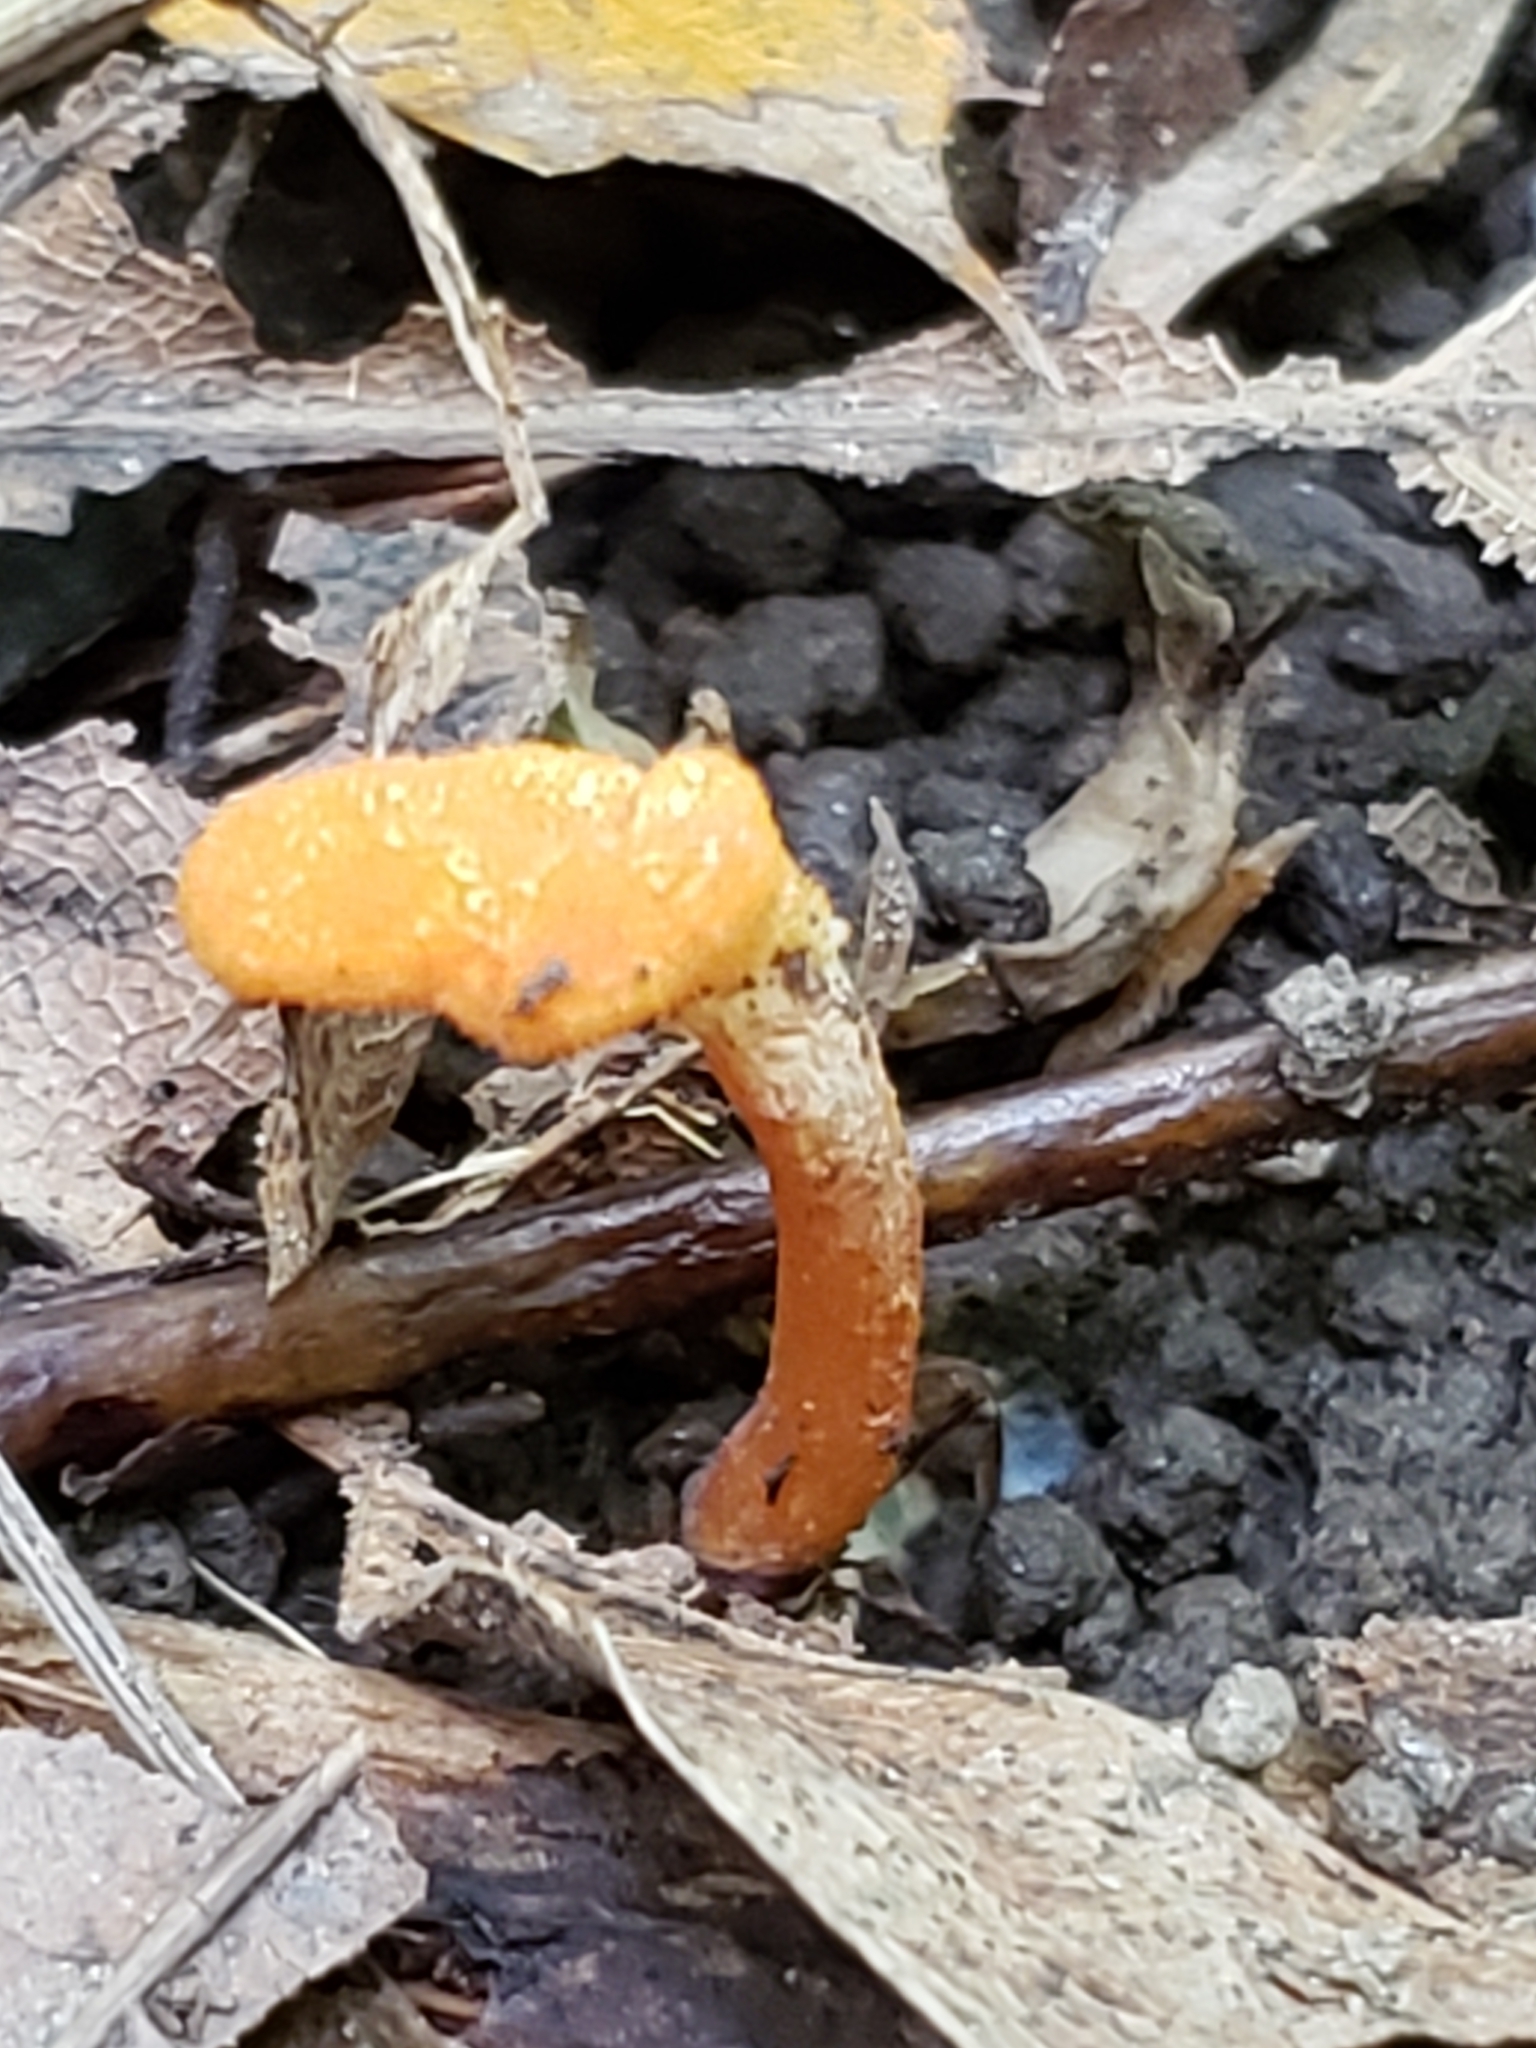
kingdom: Fungi
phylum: Ascomycota
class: Sordariomycetes
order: Hypocreales
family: Cordycipitaceae
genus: Cordyceps
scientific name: Cordyceps militaris
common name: Scarlet caterpillar fungus
